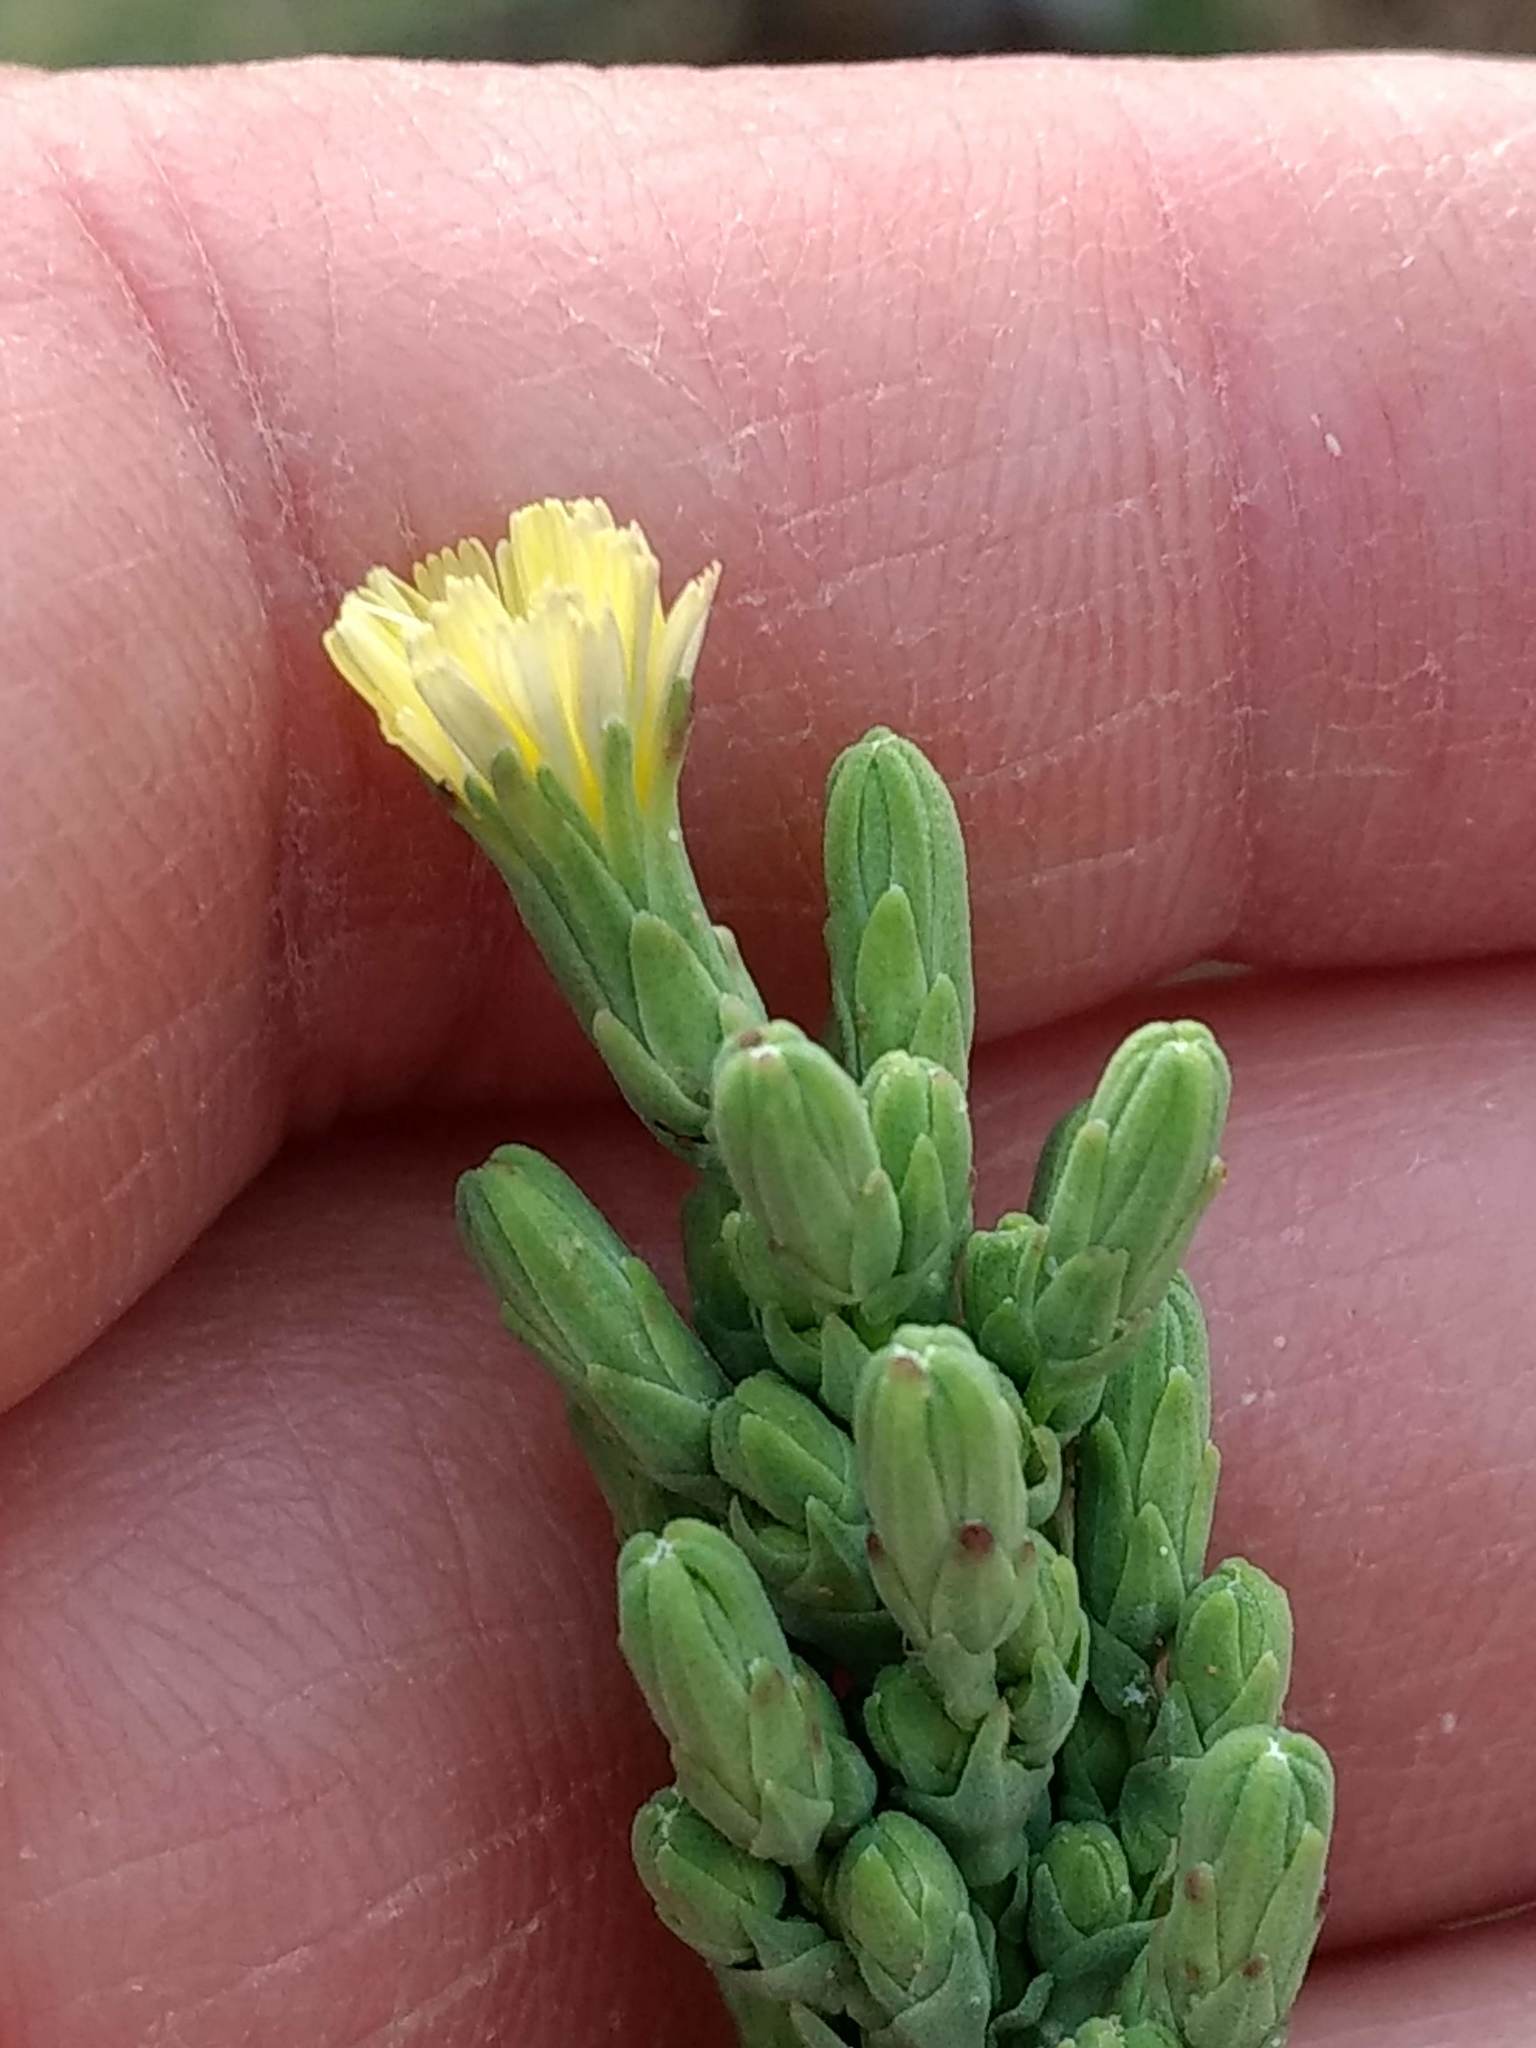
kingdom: Plantae
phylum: Tracheophyta
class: Magnoliopsida
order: Asterales
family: Asteraceae
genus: Lactuca
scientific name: Lactuca serriola
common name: Prickly lettuce
